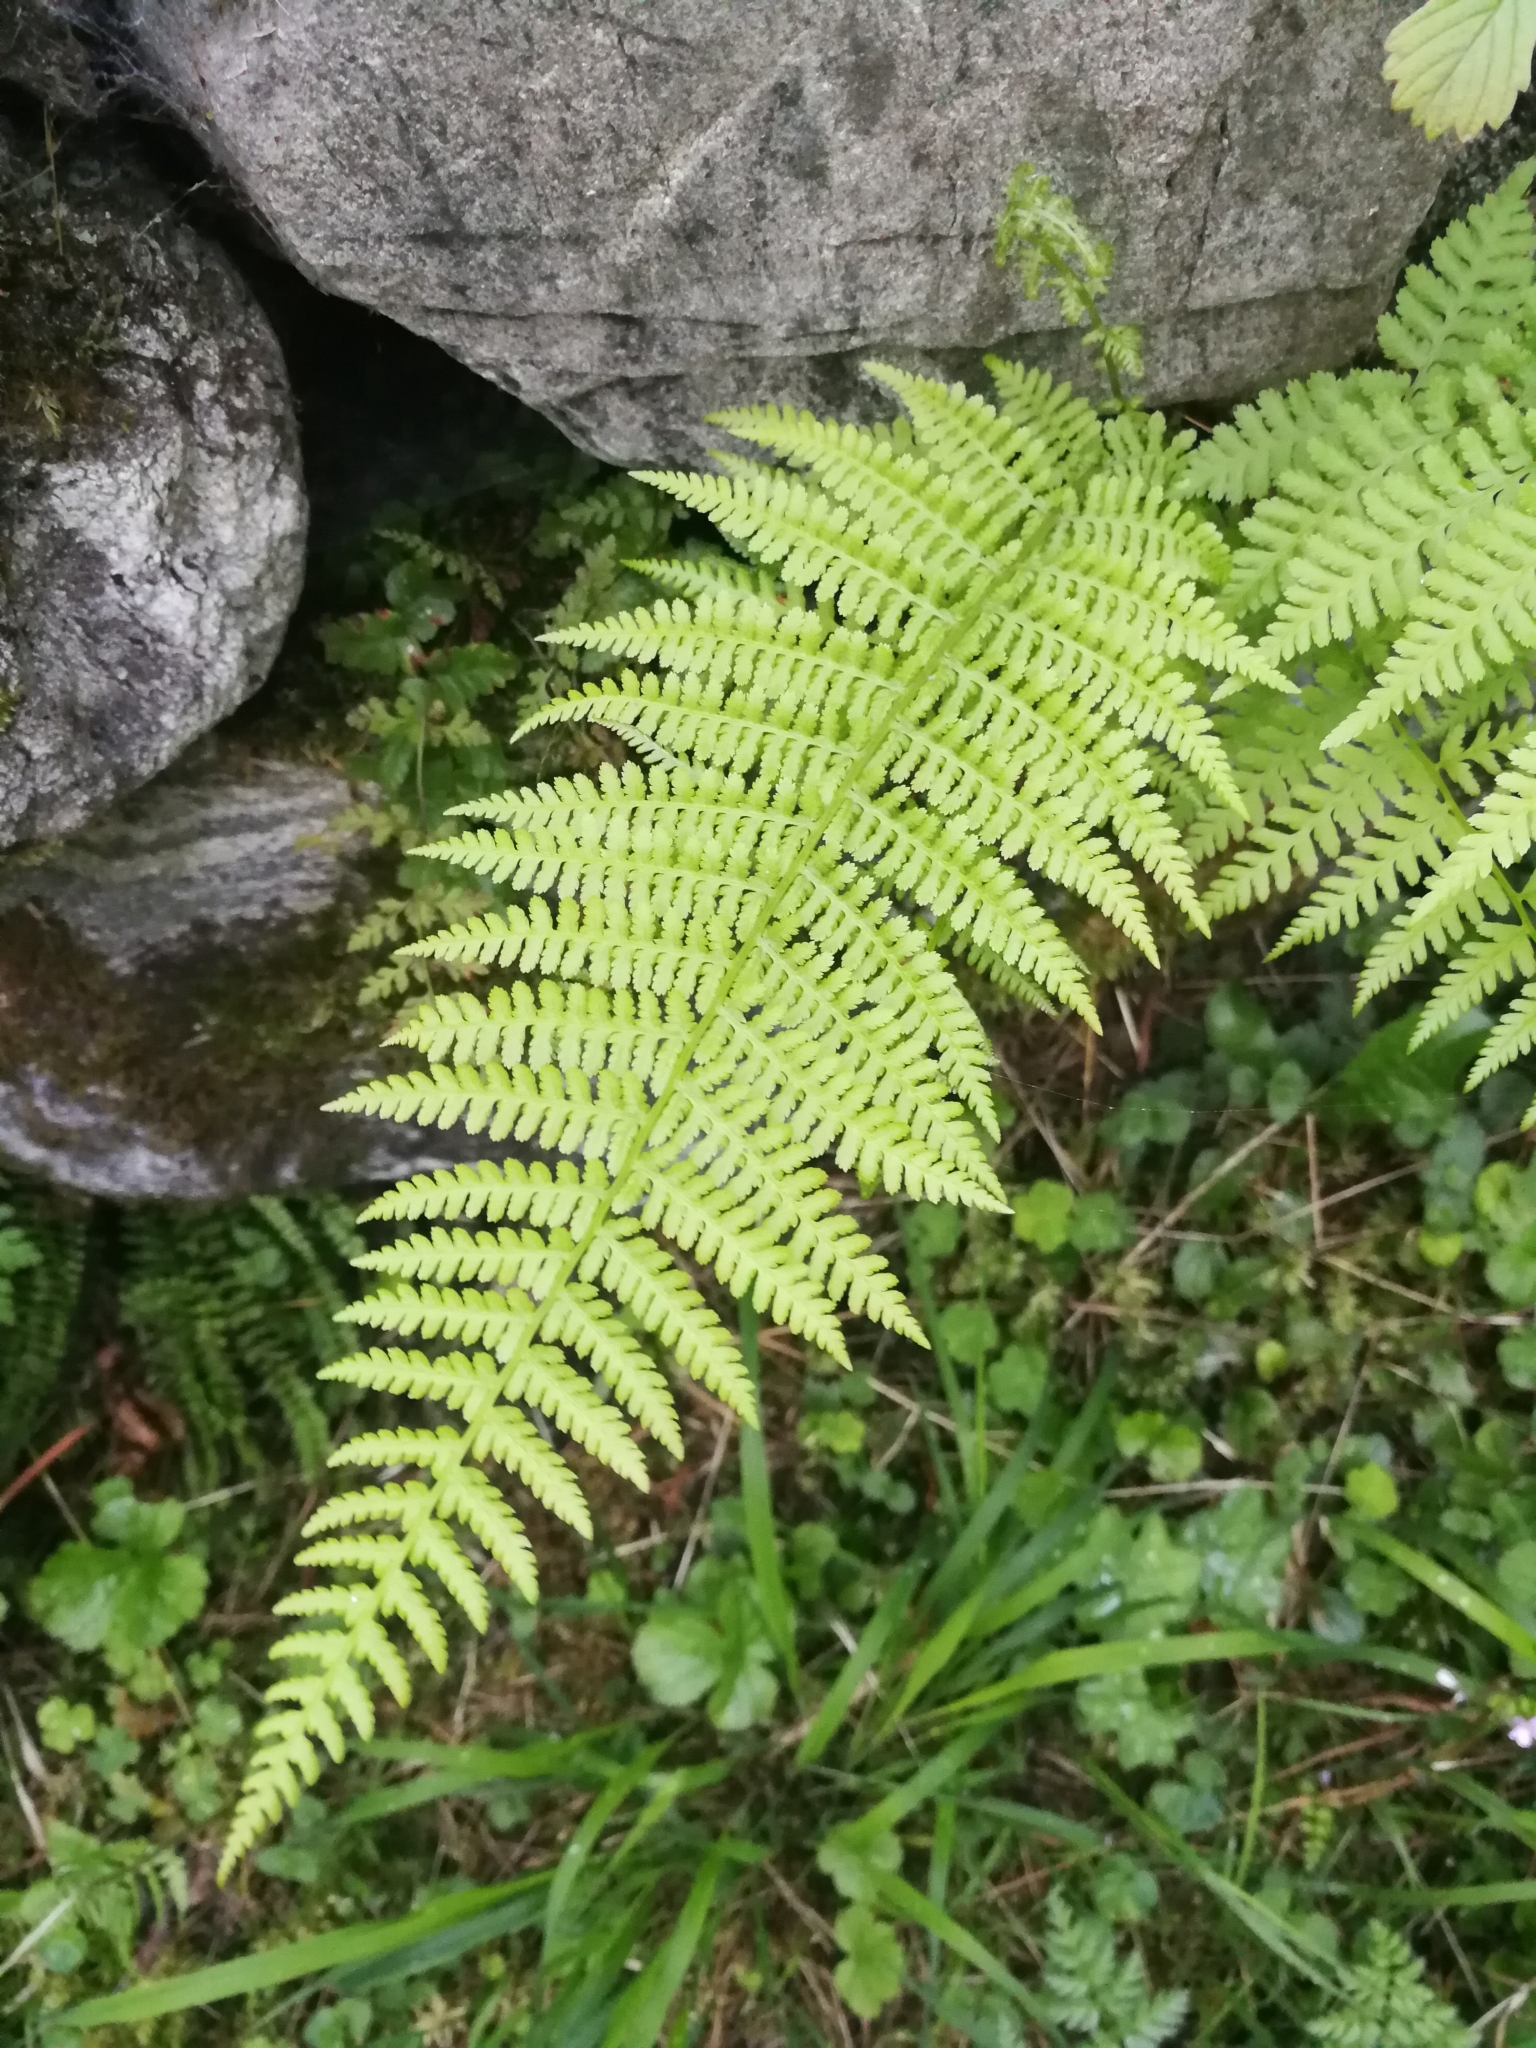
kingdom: Plantae
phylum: Tracheophyta
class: Polypodiopsida
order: Polypodiales
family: Athyriaceae
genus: Athyrium
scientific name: Athyrium filix-femina
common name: Lady fern
